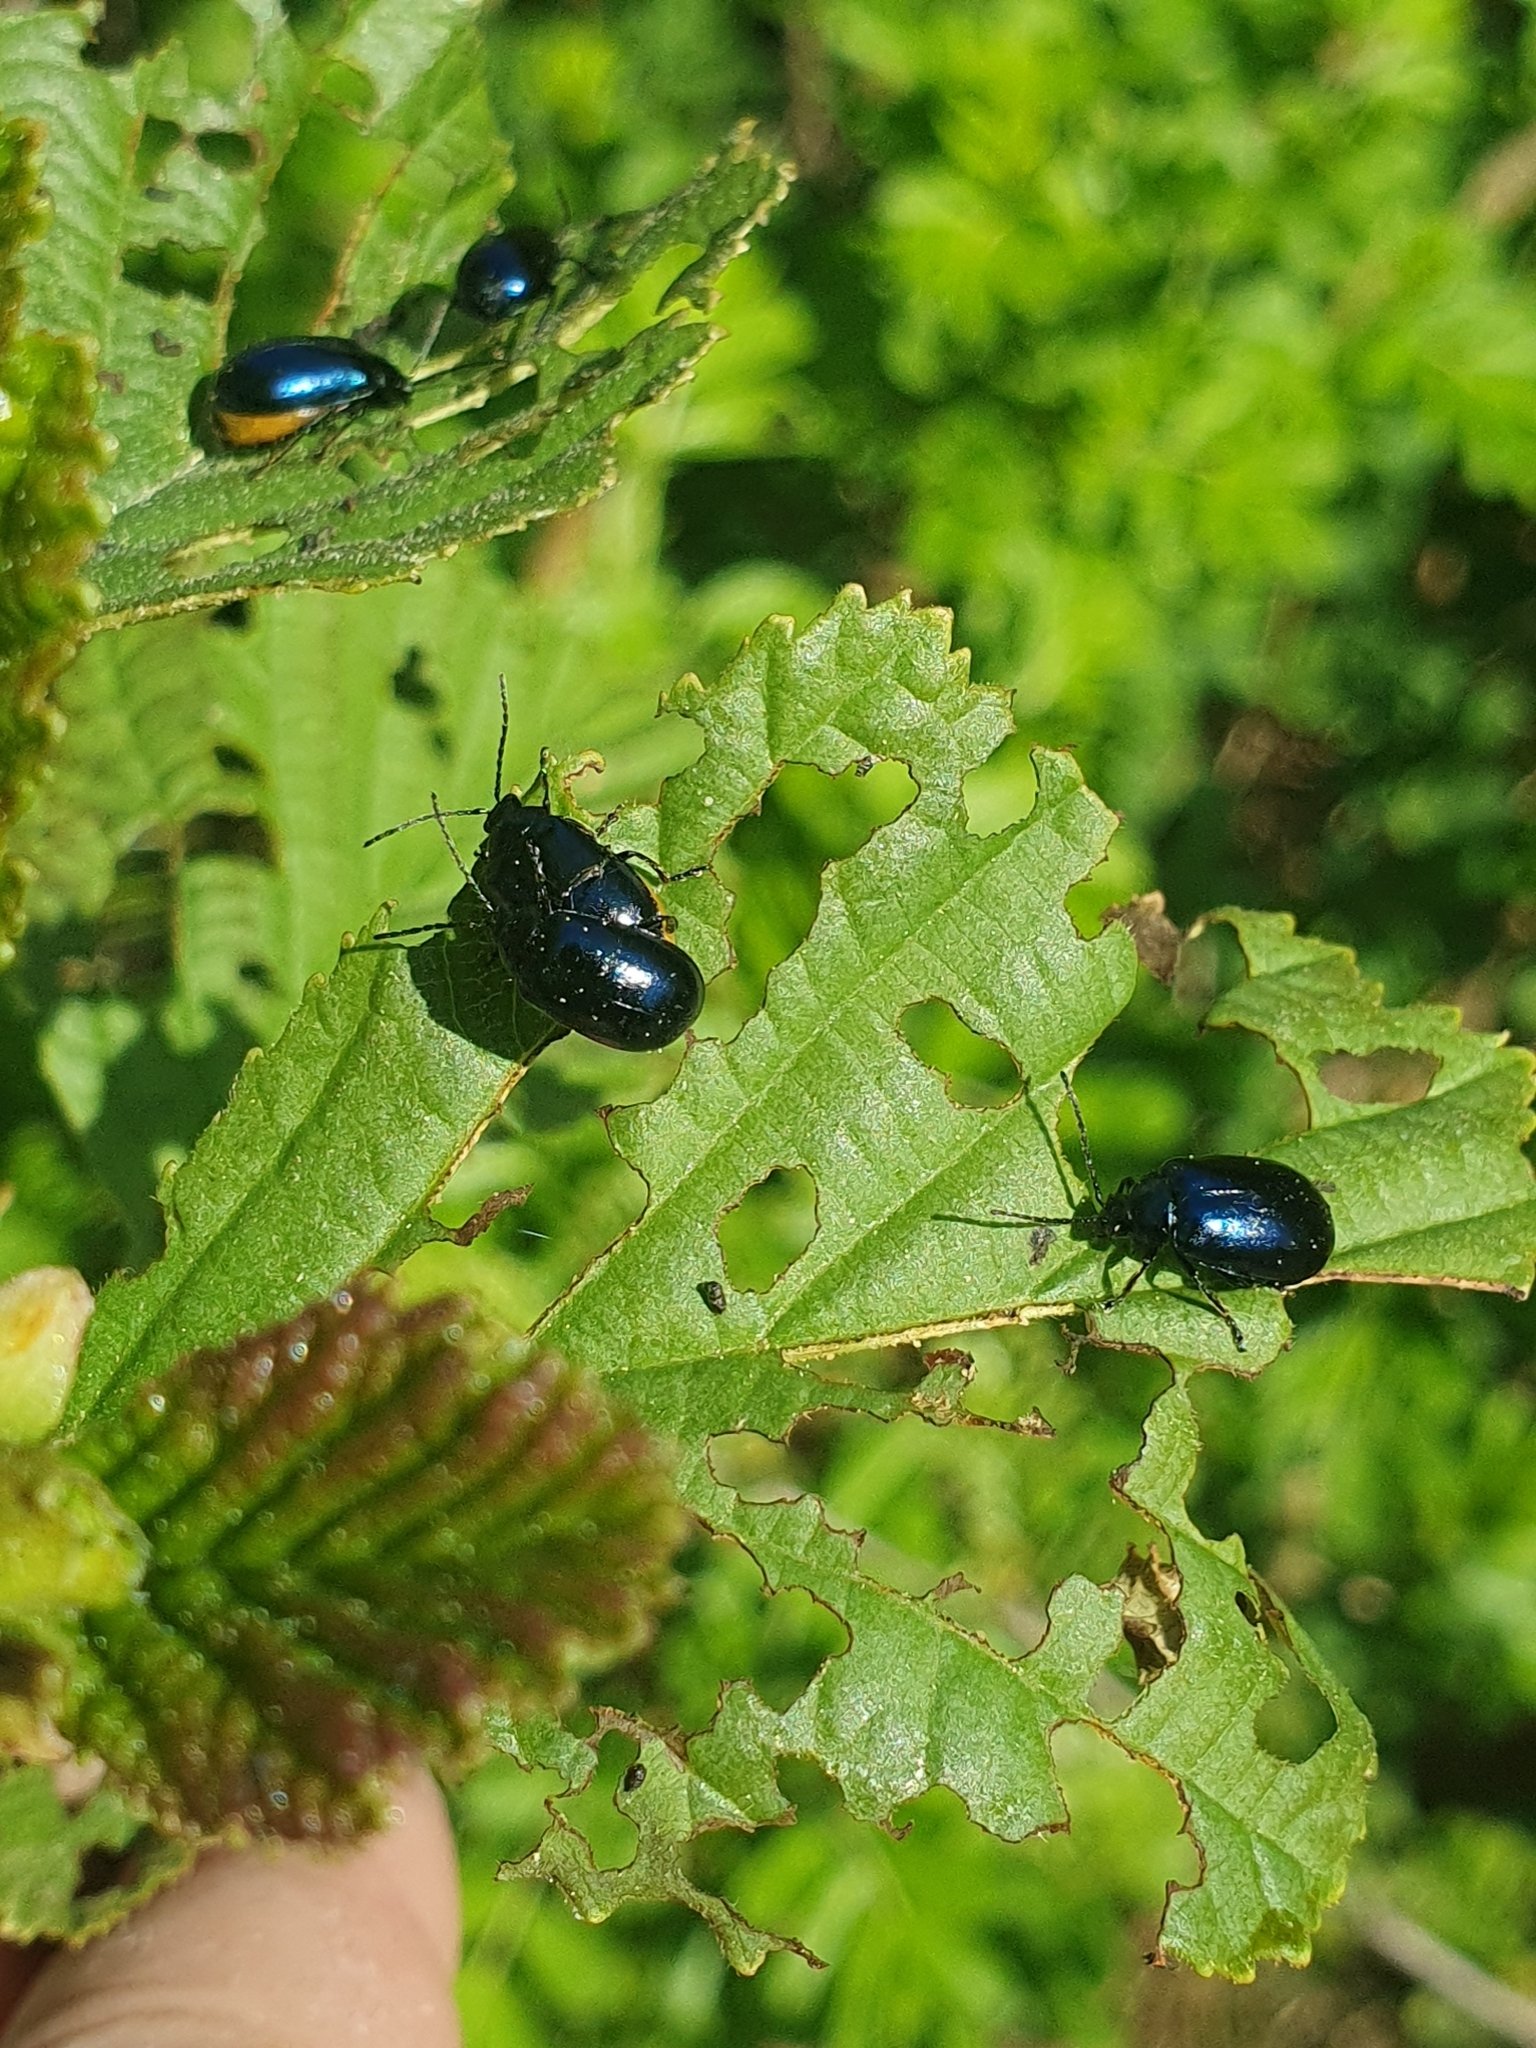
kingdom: Animalia
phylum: Arthropoda
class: Insecta
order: Coleoptera
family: Chrysomelidae
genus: Agelastica
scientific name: Agelastica alni
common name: Alder leaf beetle
